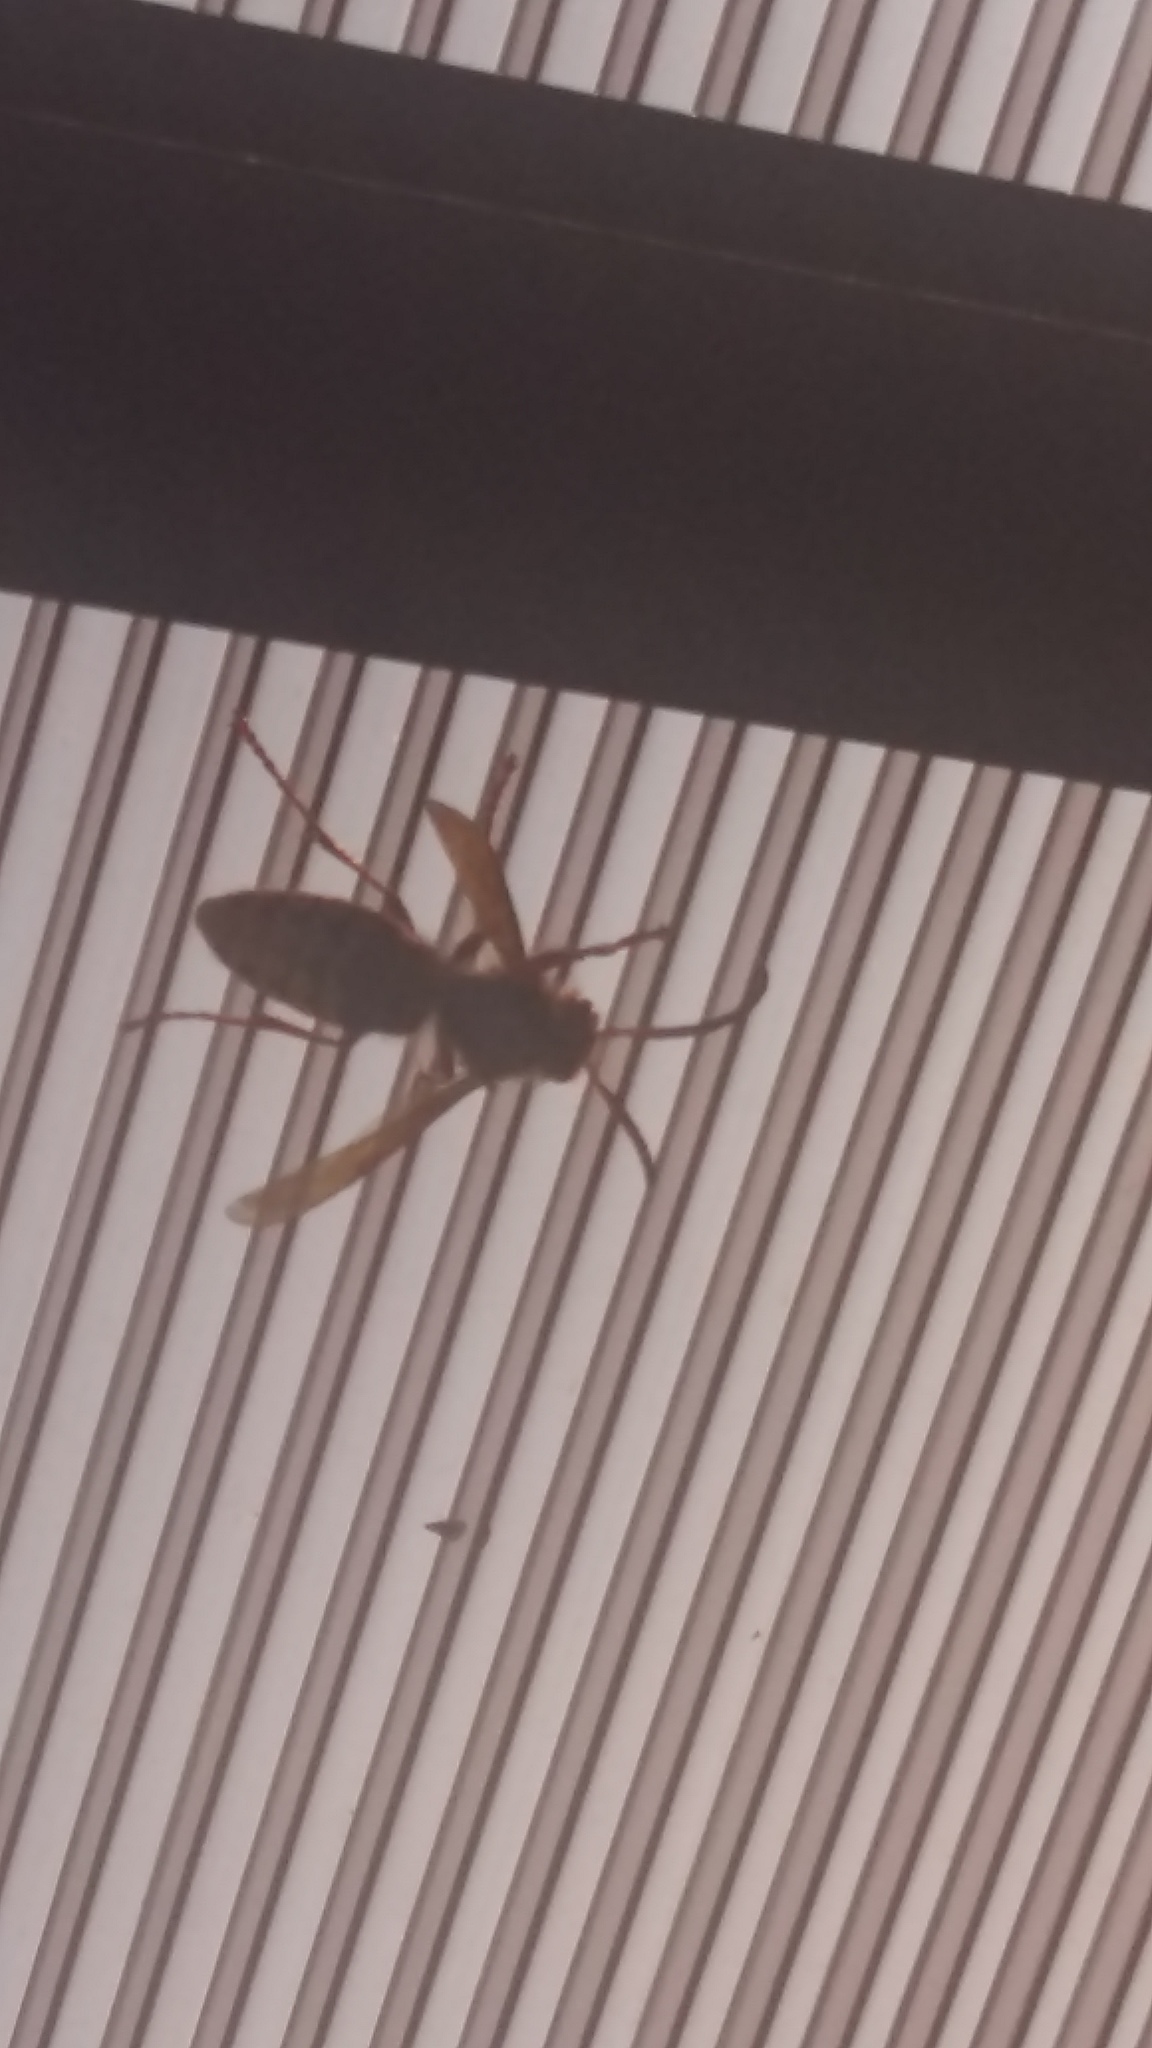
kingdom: Animalia
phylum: Arthropoda
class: Insecta
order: Hymenoptera
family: Vespidae
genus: Vespa
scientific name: Vespa crabro
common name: Hornet
